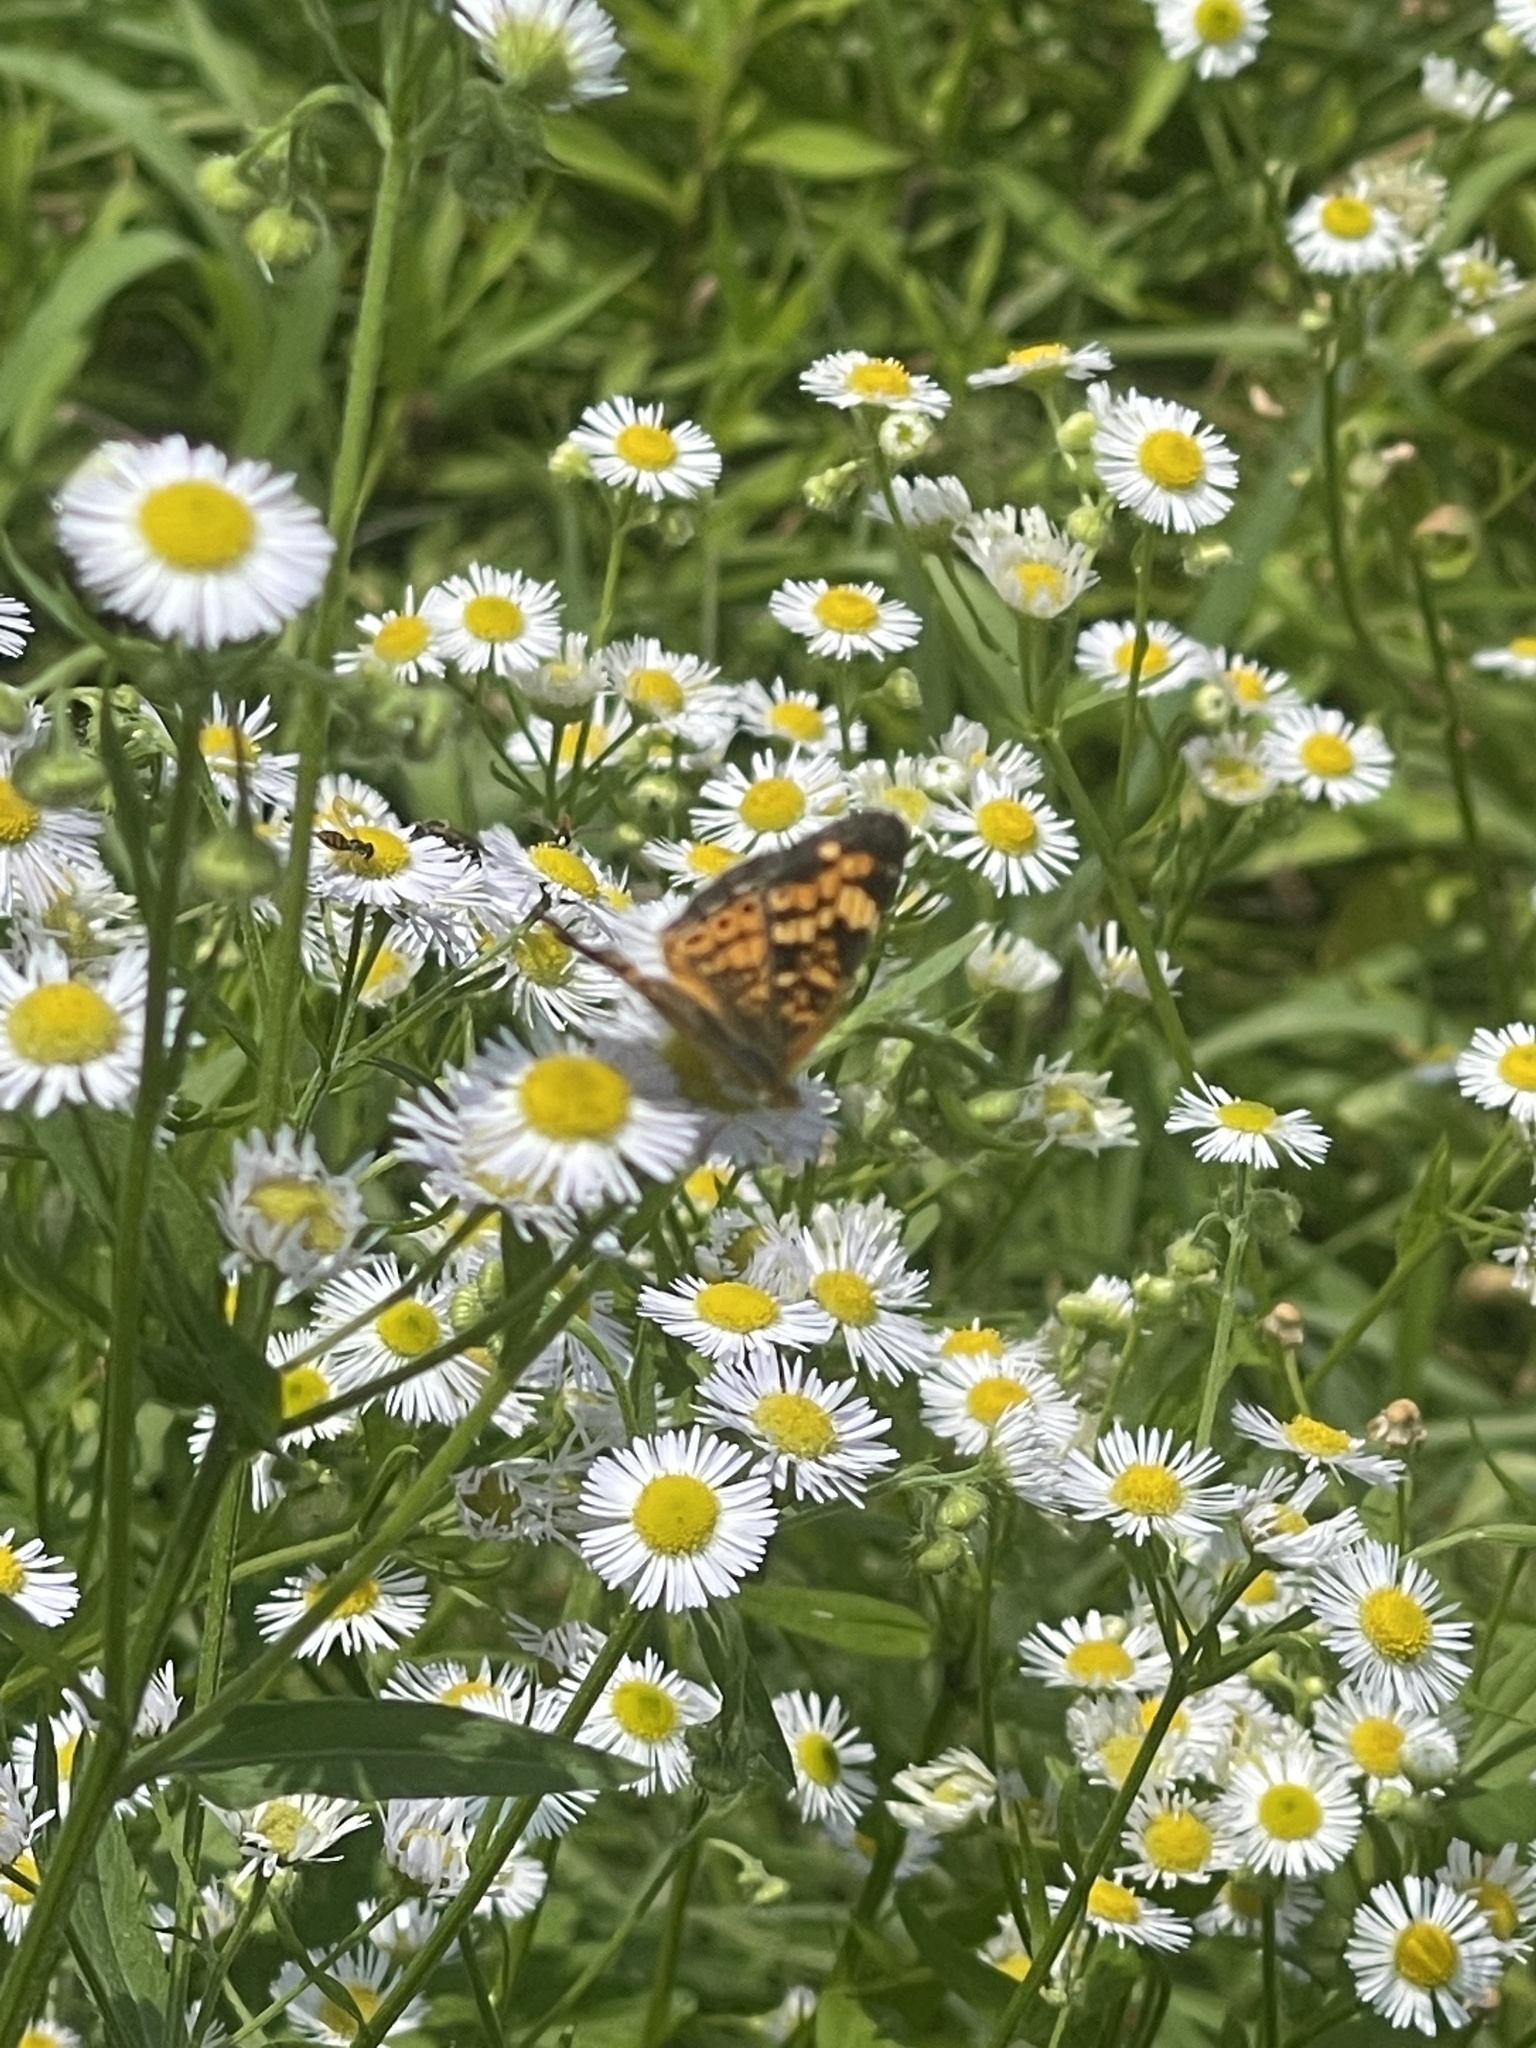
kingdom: Animalia
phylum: Arthropoda
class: Insecta
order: Lepidoptera
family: Nymphalidae
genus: Phyciodes
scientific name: Phyciodes tharos
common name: Pearl crescent
